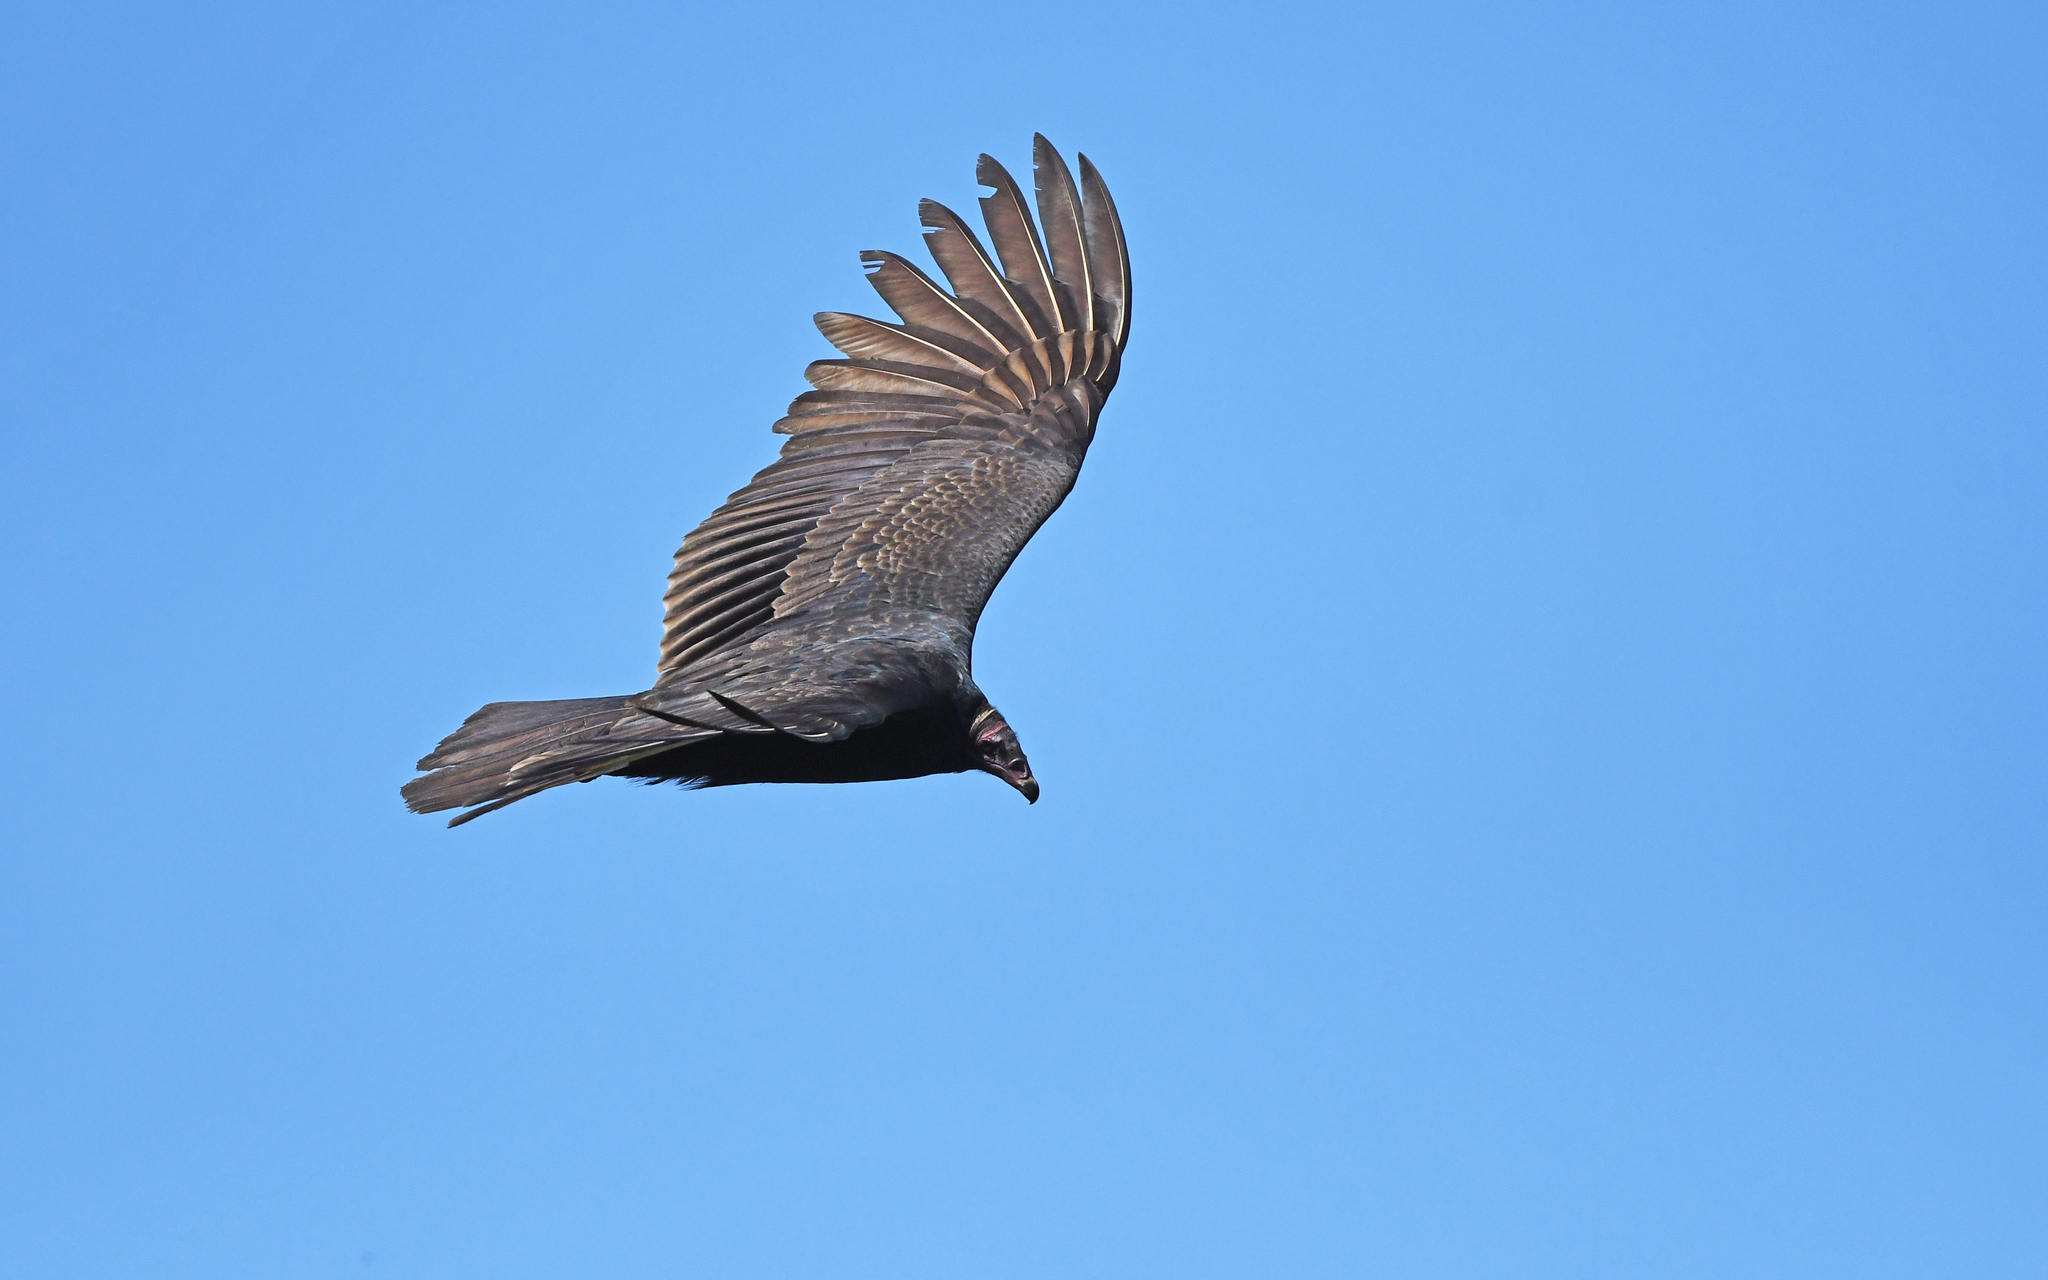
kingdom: Animalia
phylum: Chordata
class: Aves
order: Accipitriformes
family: Cathartidae
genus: Cathartes
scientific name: Cathartes aura
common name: Turkey vulture
